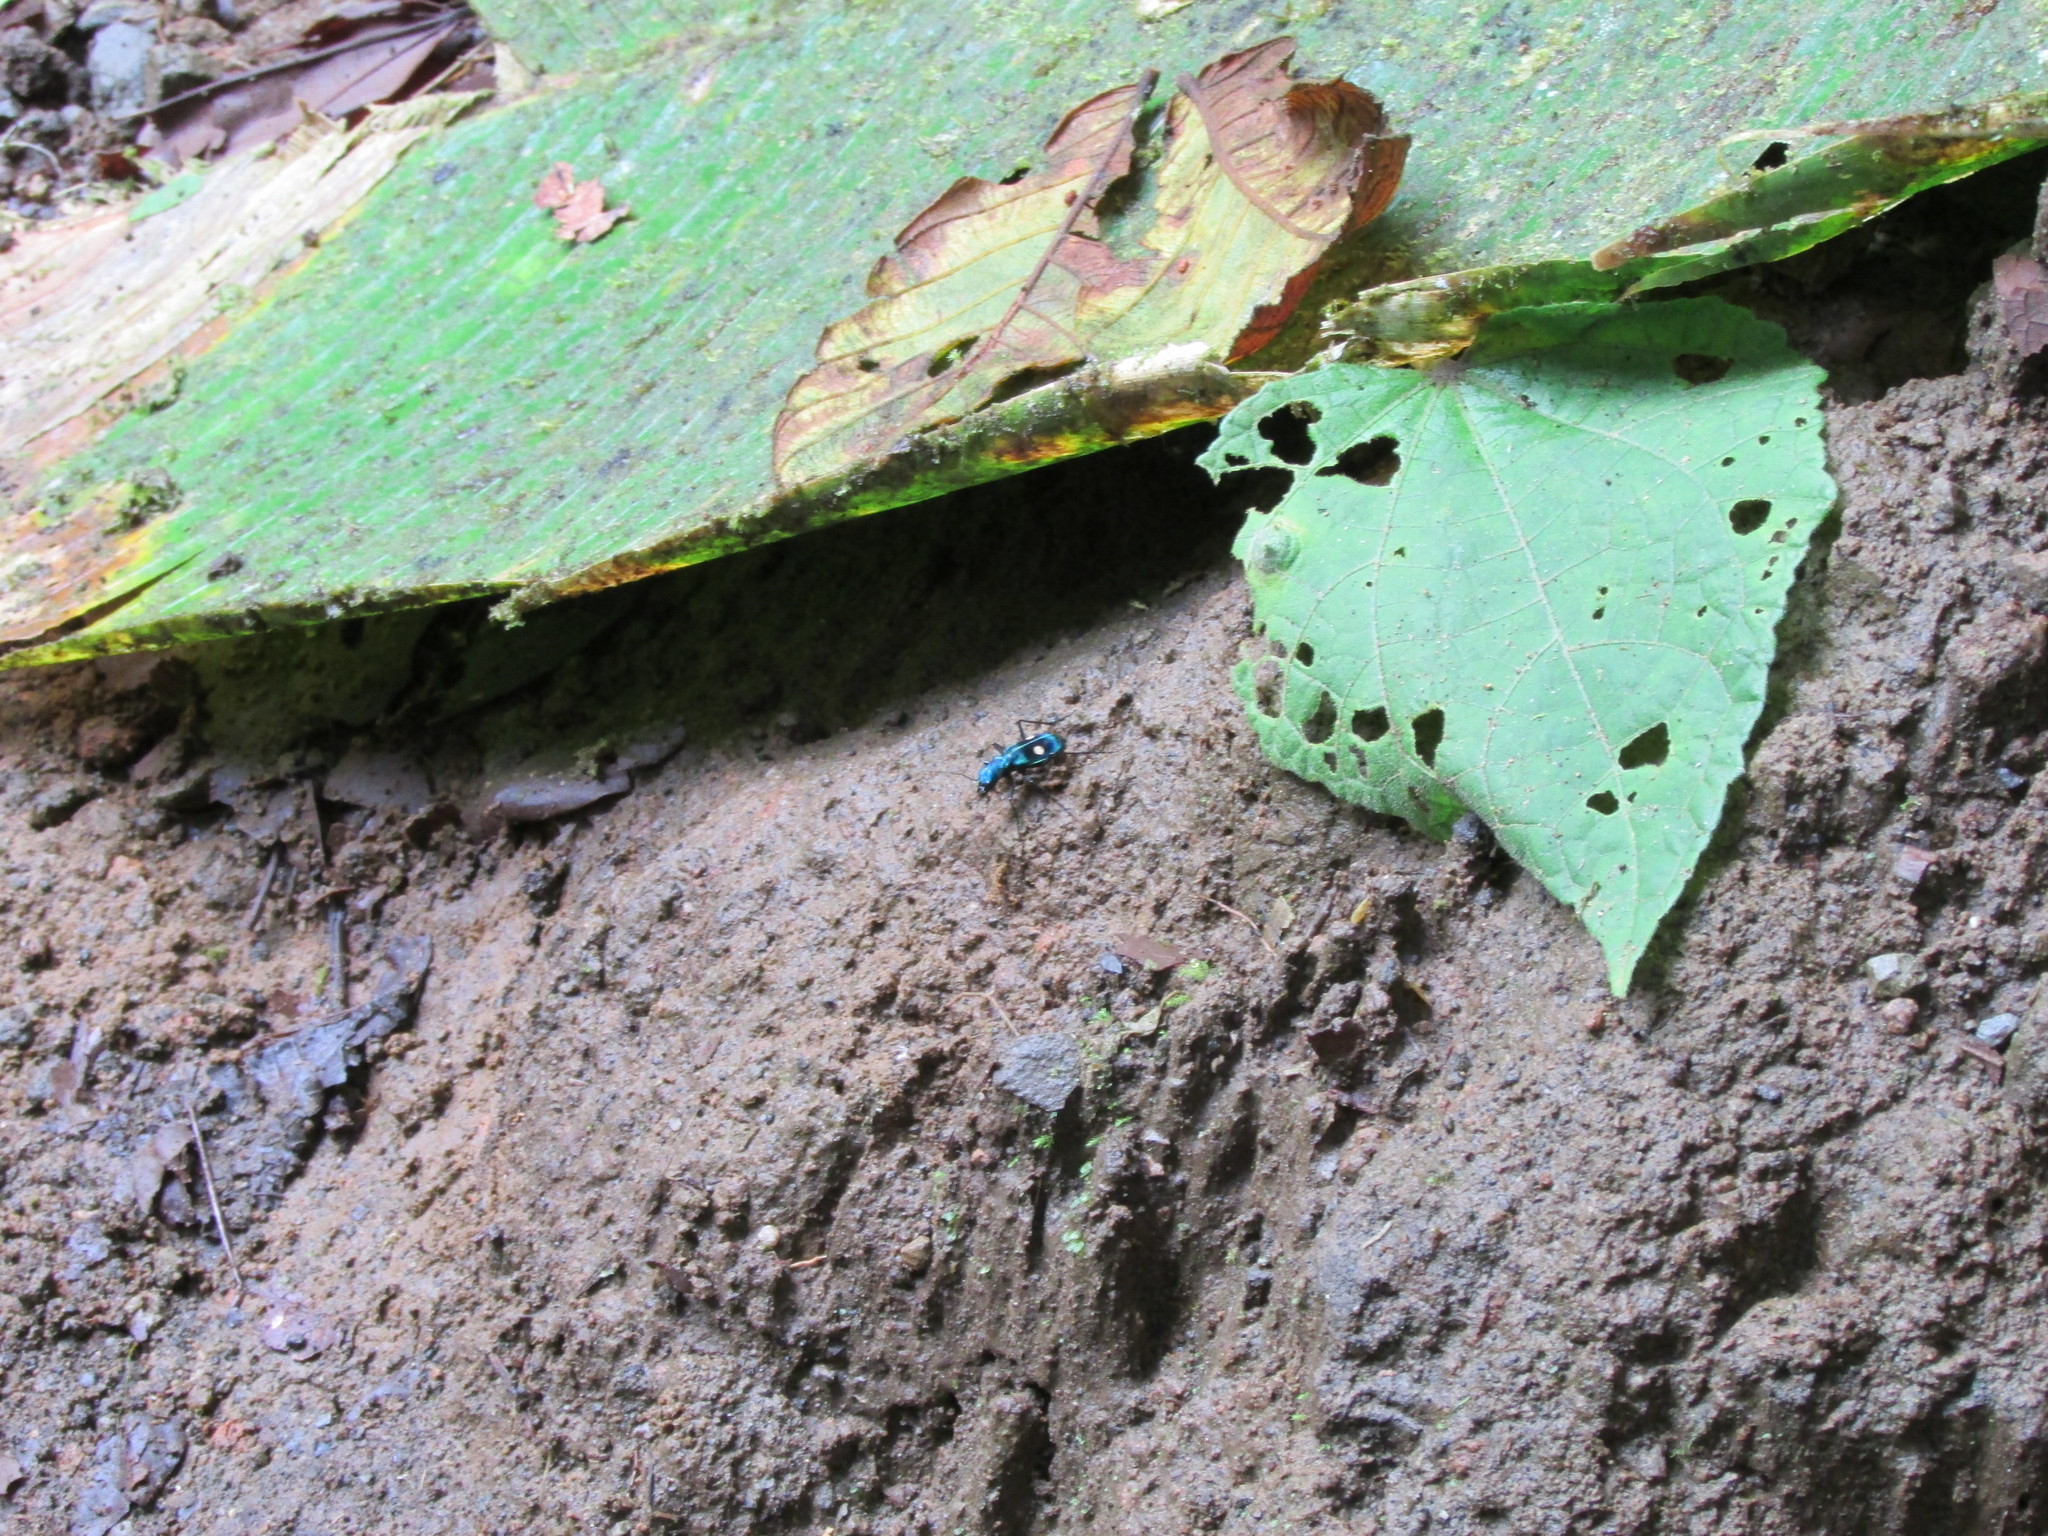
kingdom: Animalia
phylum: Arthropoda
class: Insecta
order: Coleoptera
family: Carabidae
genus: Pseudoxycheila
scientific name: Pseudoxycheila tarsalis
